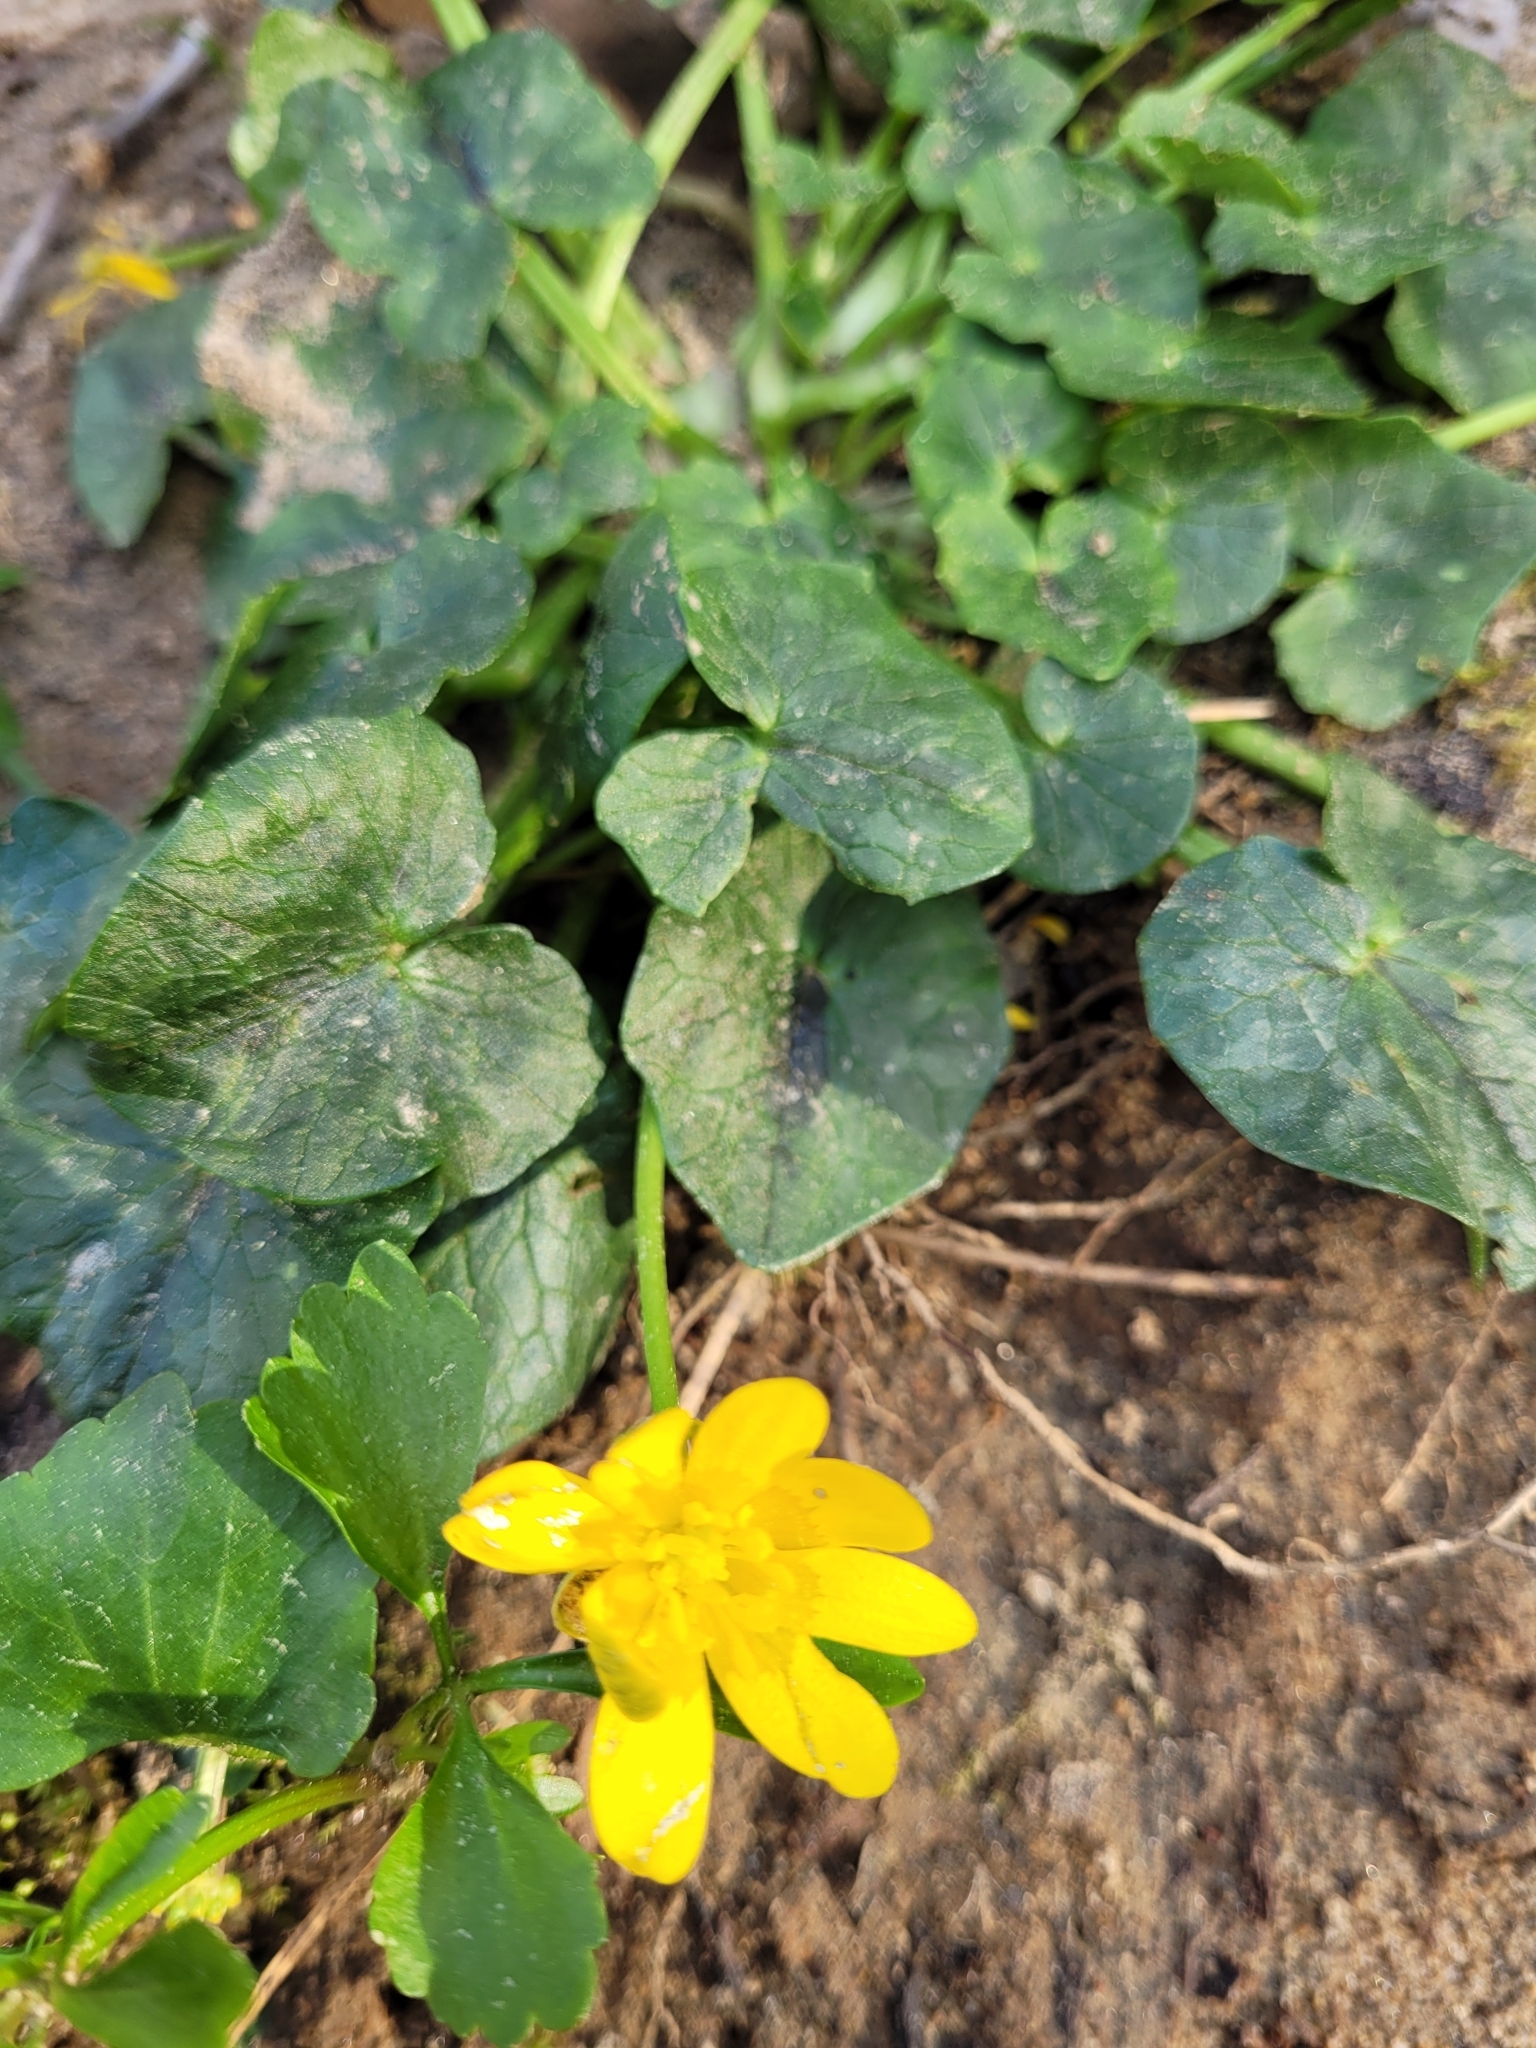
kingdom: Plantae
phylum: Tracheophyta
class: Magnoliopsida
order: Ranunculales
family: Ranunculaceae
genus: Ficaria
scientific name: Ficaria verna
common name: Lesser celandine
